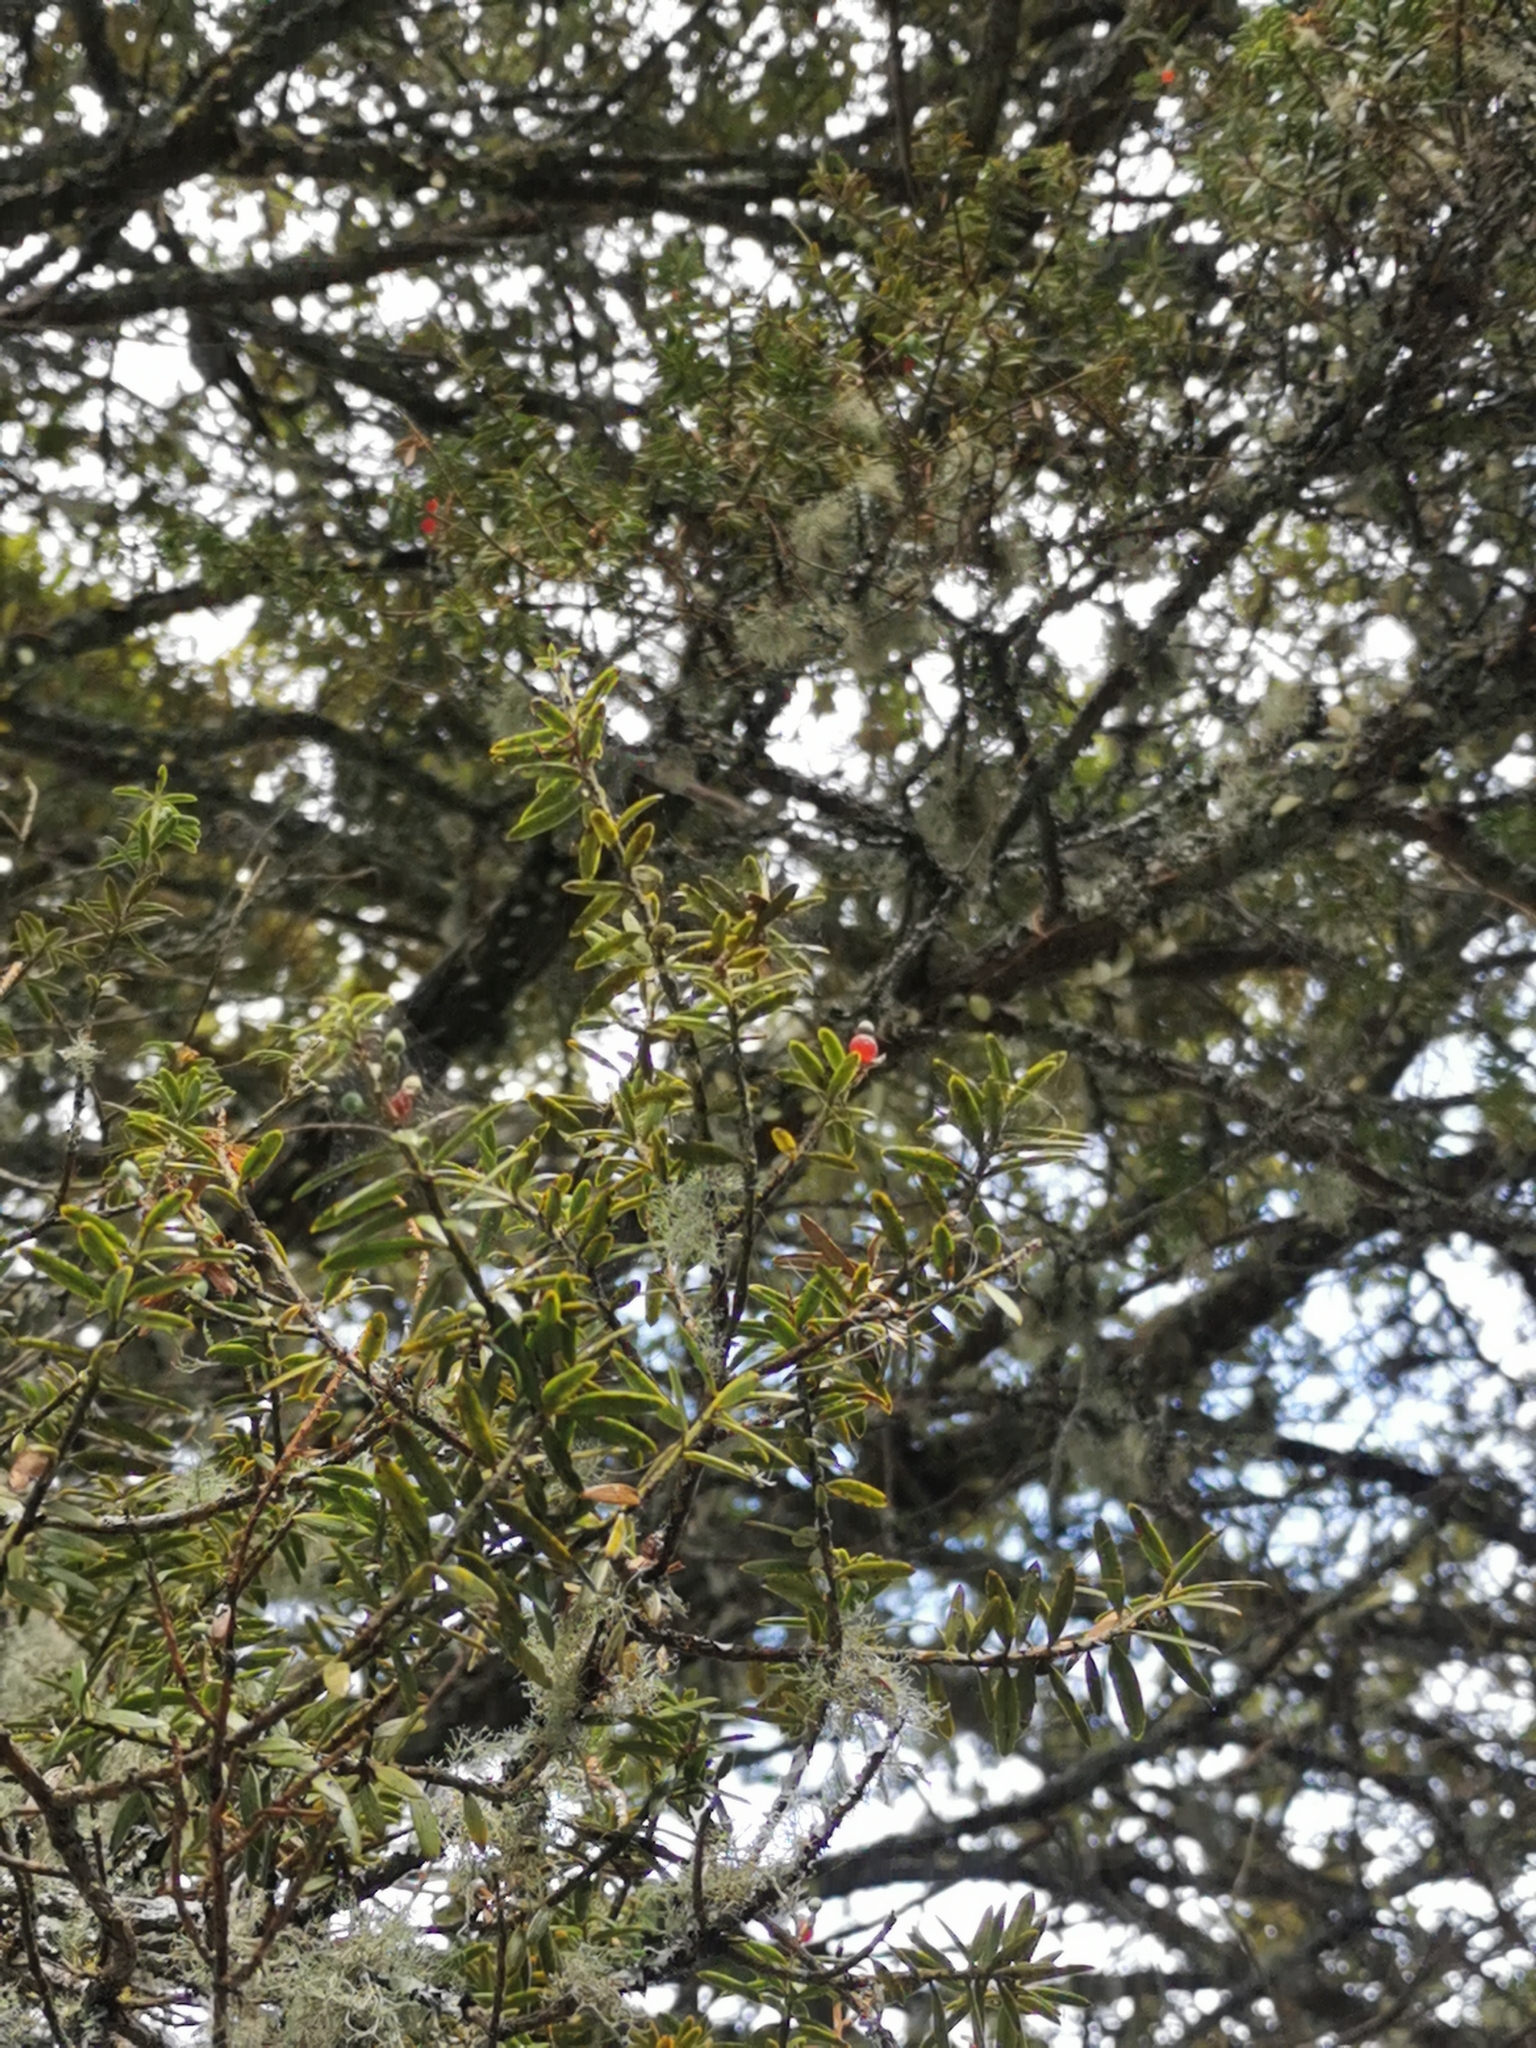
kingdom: Plantae
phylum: Tracheophyta
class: Pinopsida
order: Pinales
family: Podocarpaceae
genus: Podocarpus
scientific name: Podocarpus totara
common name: Totara
